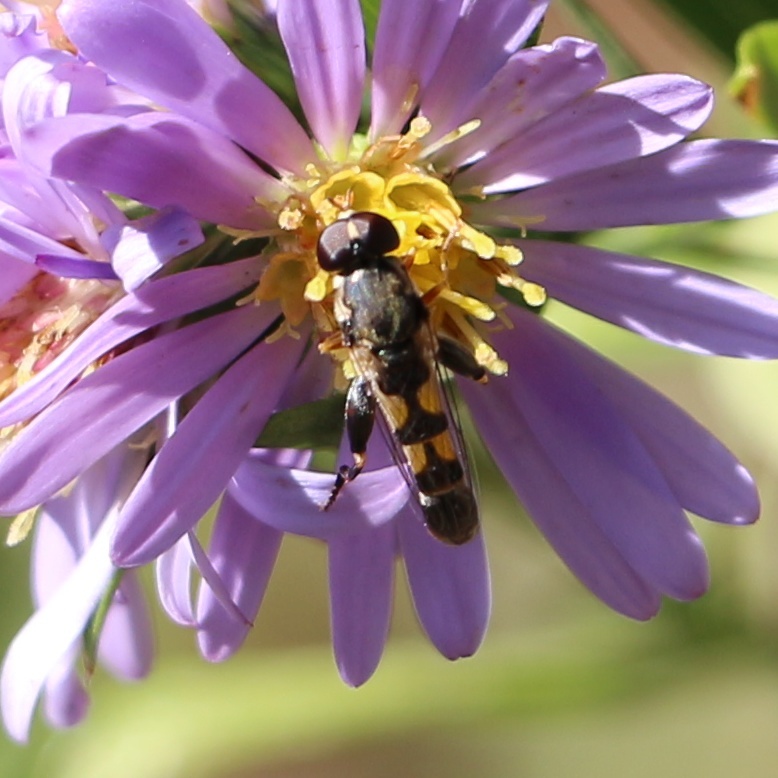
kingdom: Animalia
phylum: Arthropoda
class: Insecta
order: Diptera
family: Syrphidae
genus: Syritta
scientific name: Syritta pipiens
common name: Hover fly
